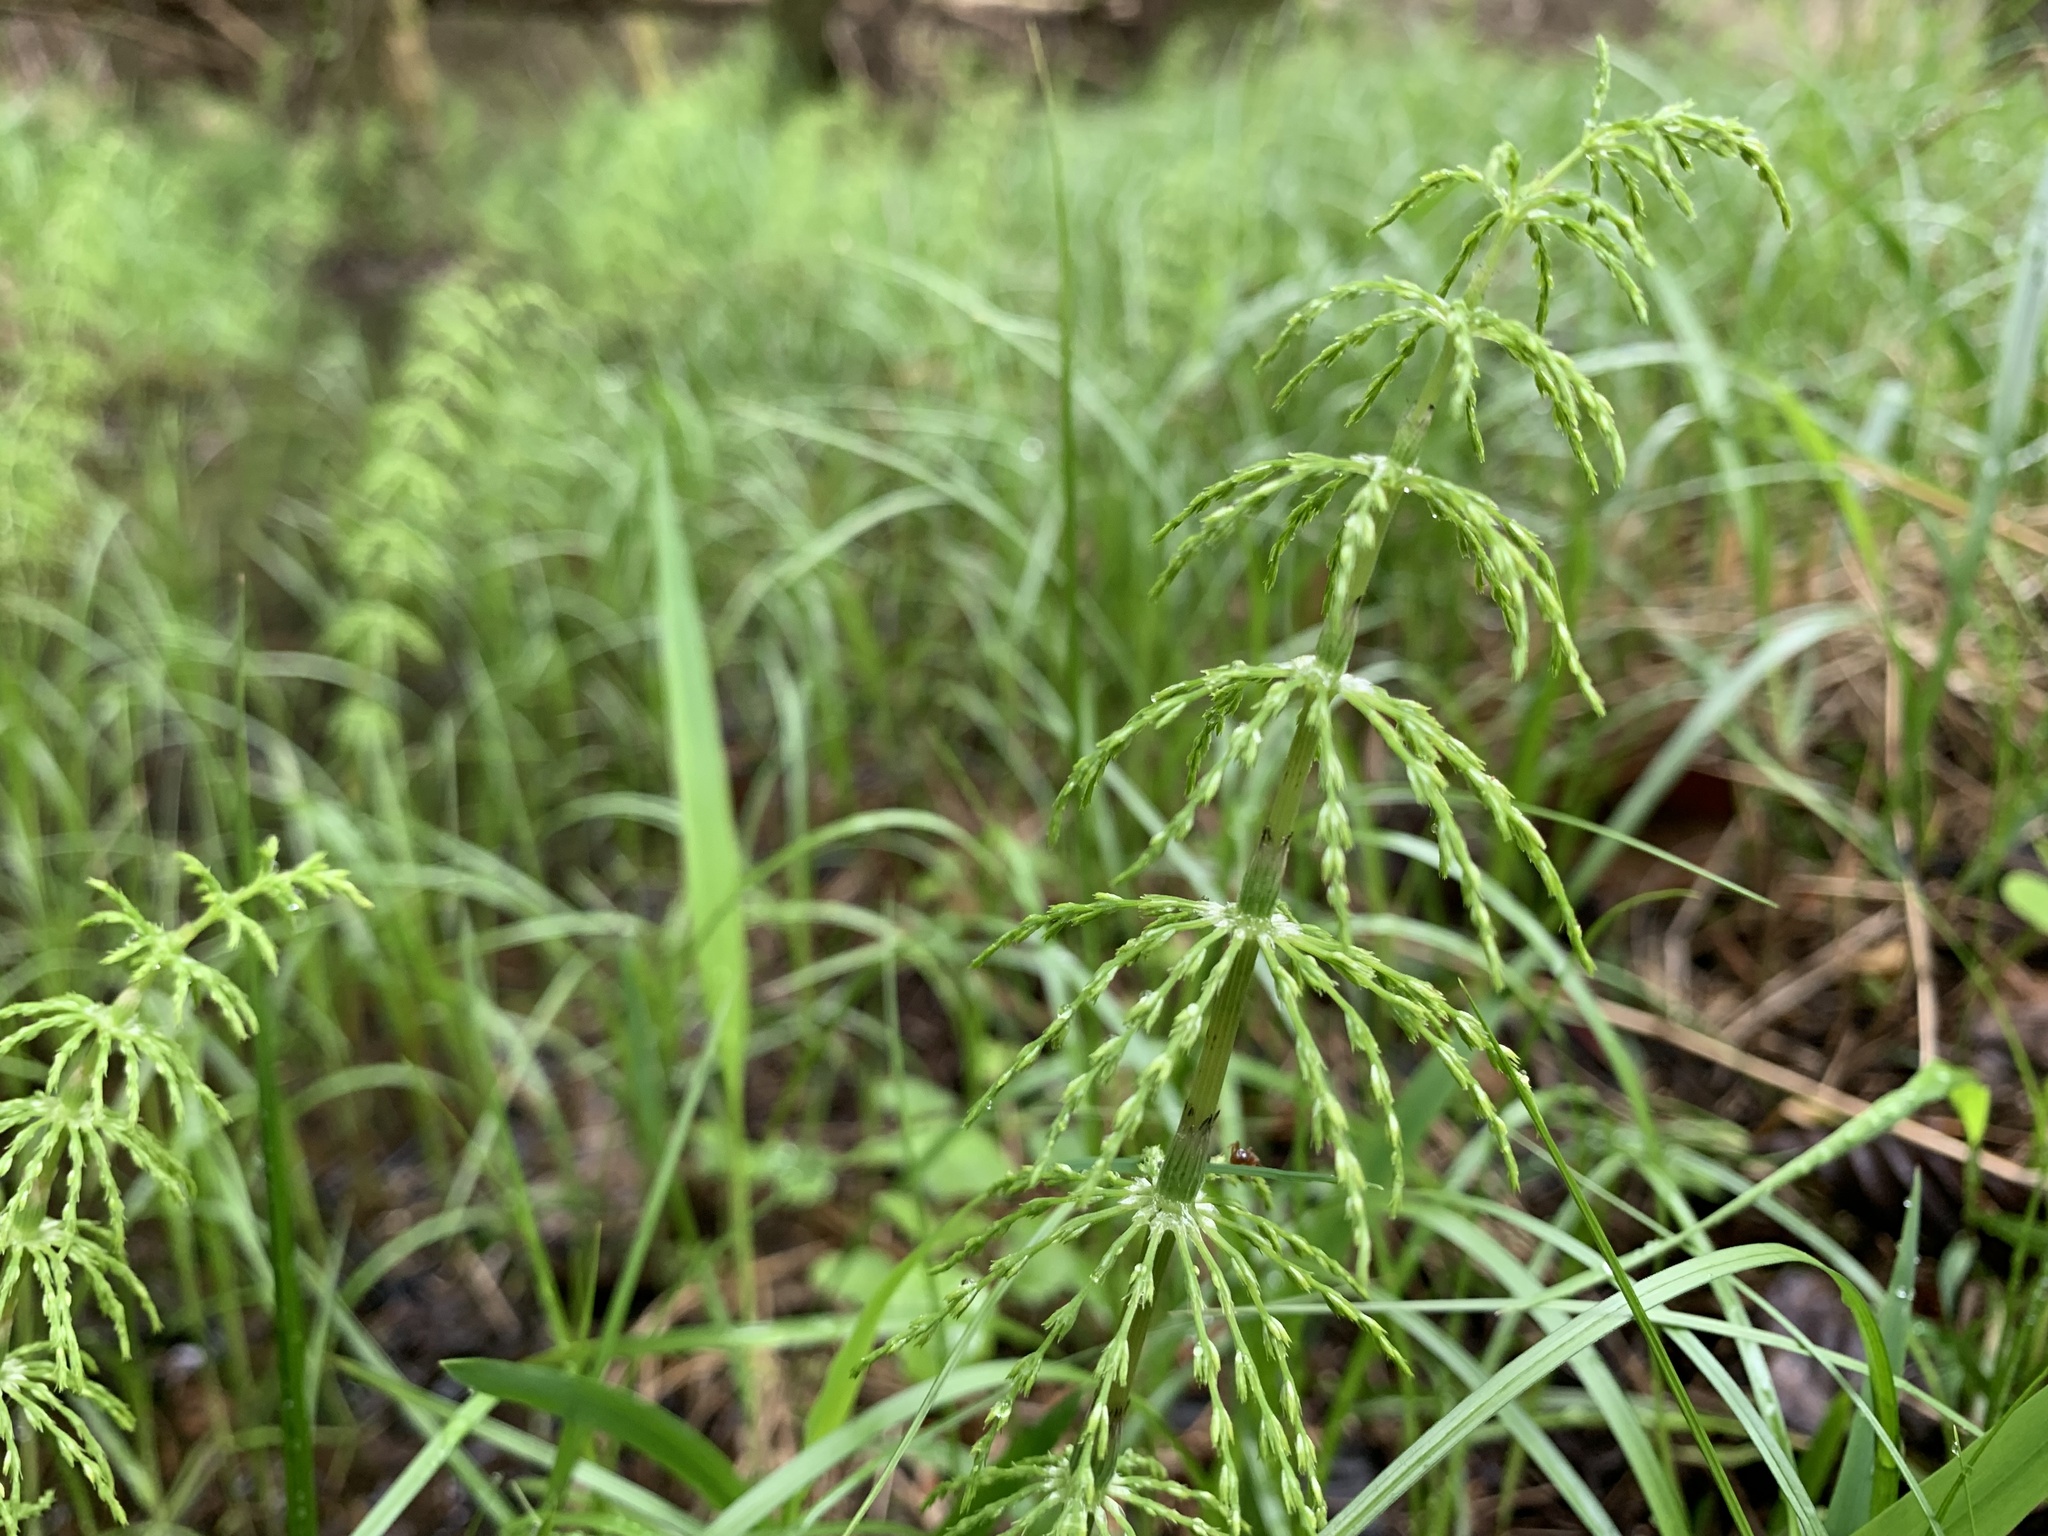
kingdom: Plantae
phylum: Tracheophyta
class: Polypodiopsida
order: Equisetales
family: Equisetaceae
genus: Equisetum
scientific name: Equisetum sylvaticum
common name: Wood horsetail
